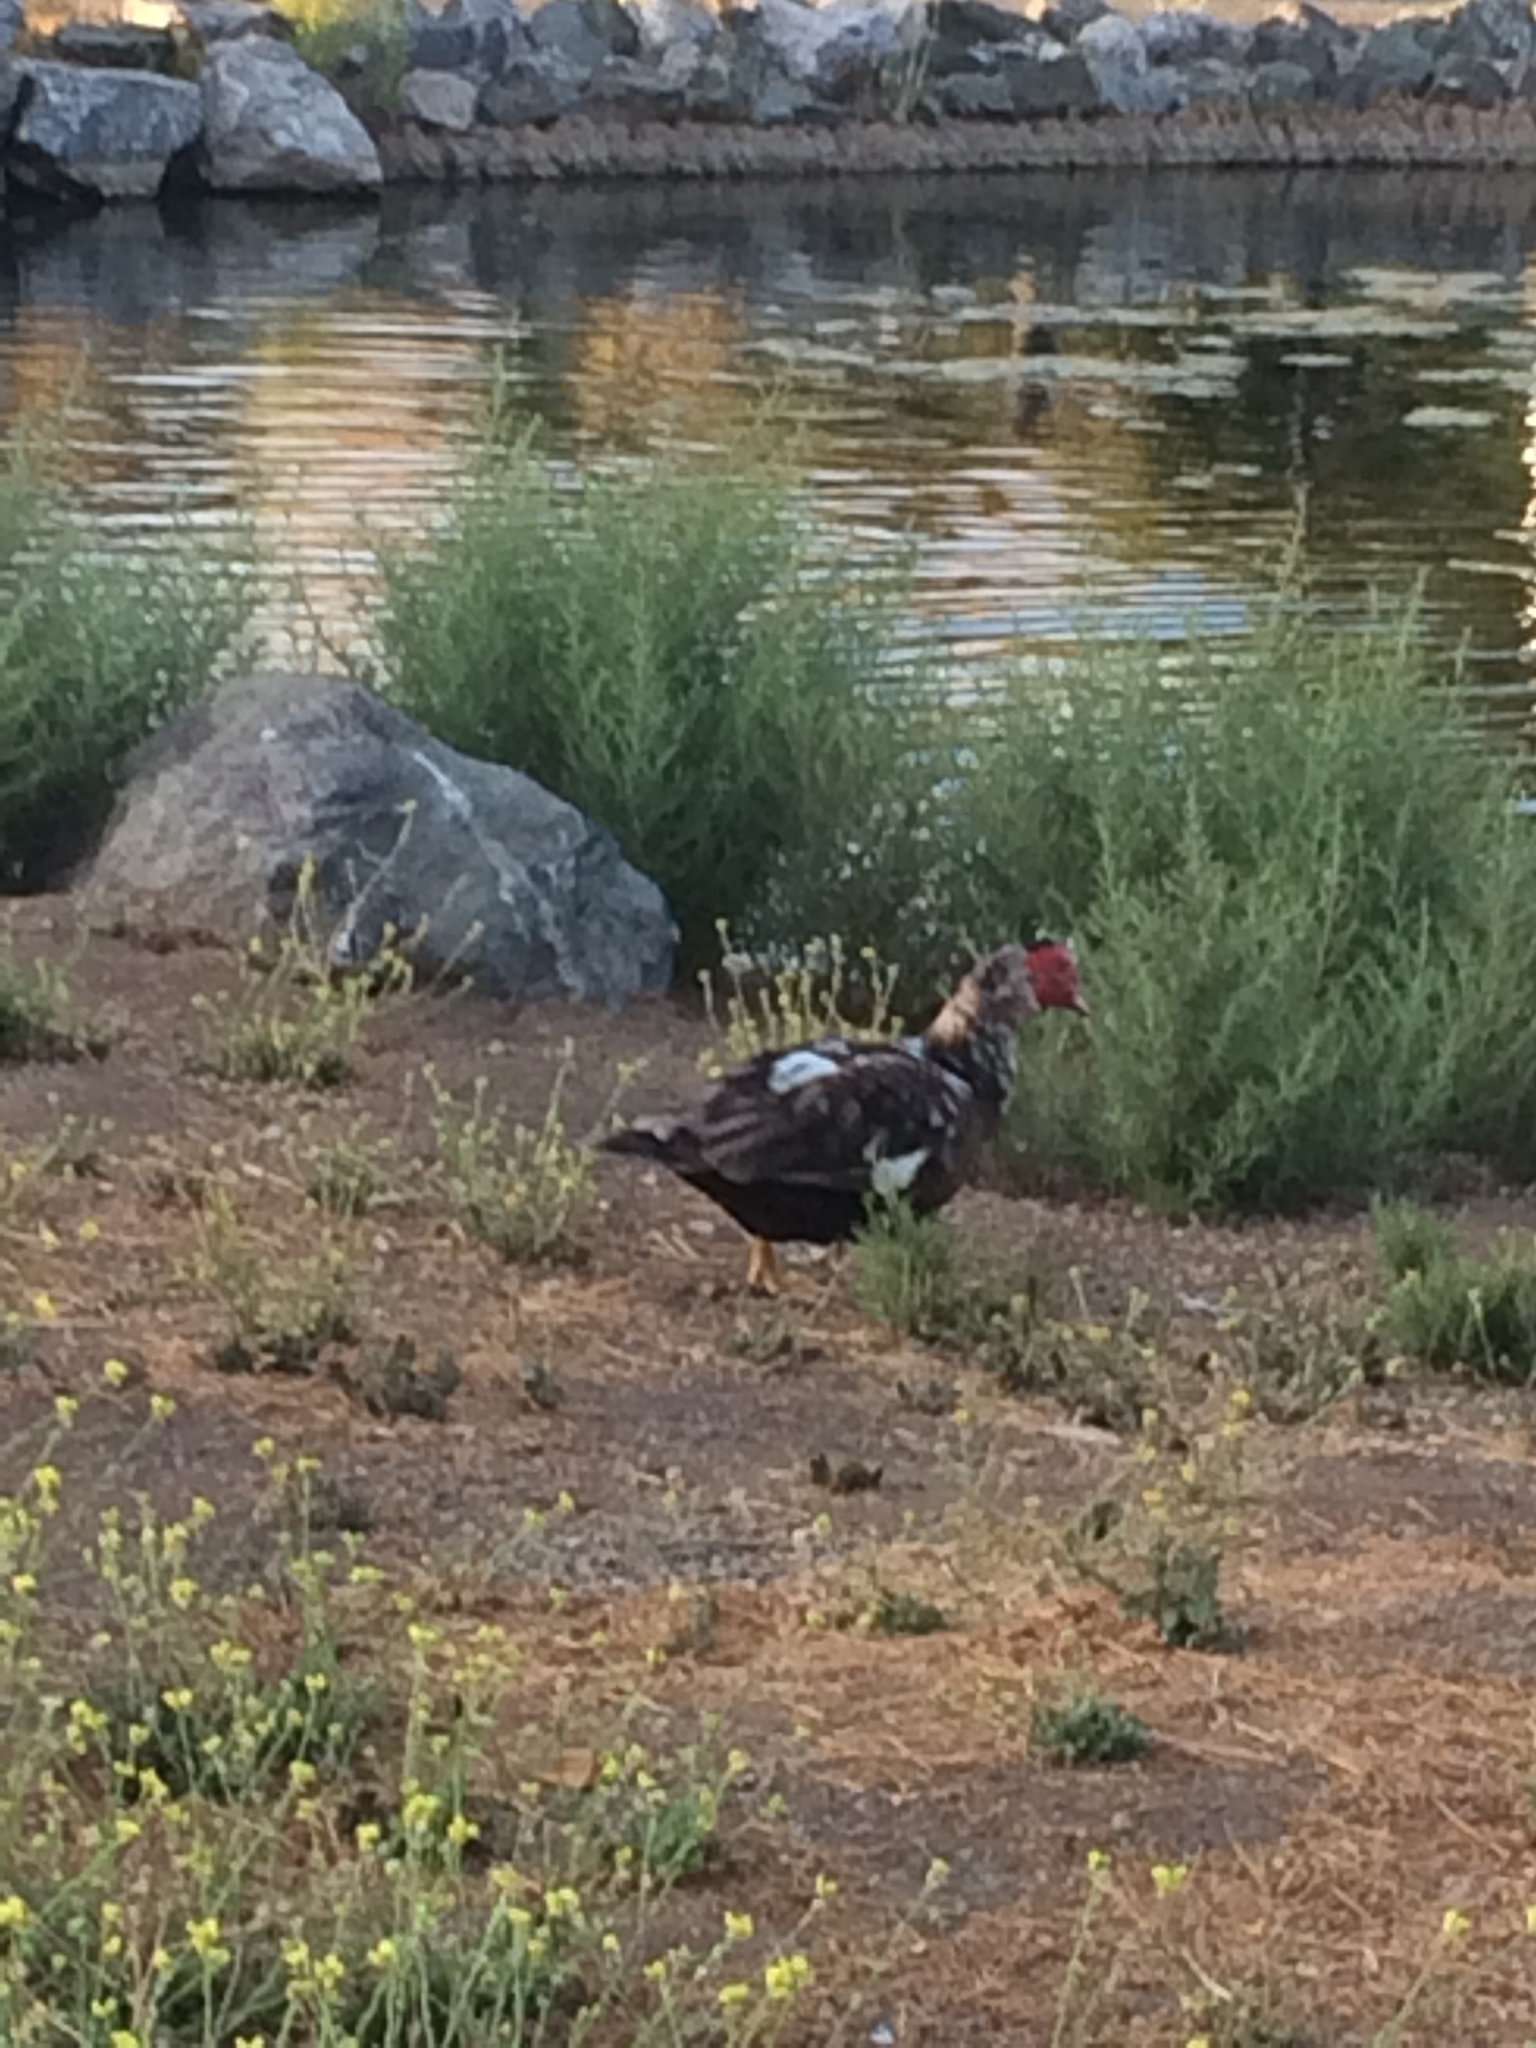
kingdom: Animalia
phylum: Chordata
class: Aves
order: Anseriformes
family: Anatidae
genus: Cairina
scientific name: Cairina moschata
